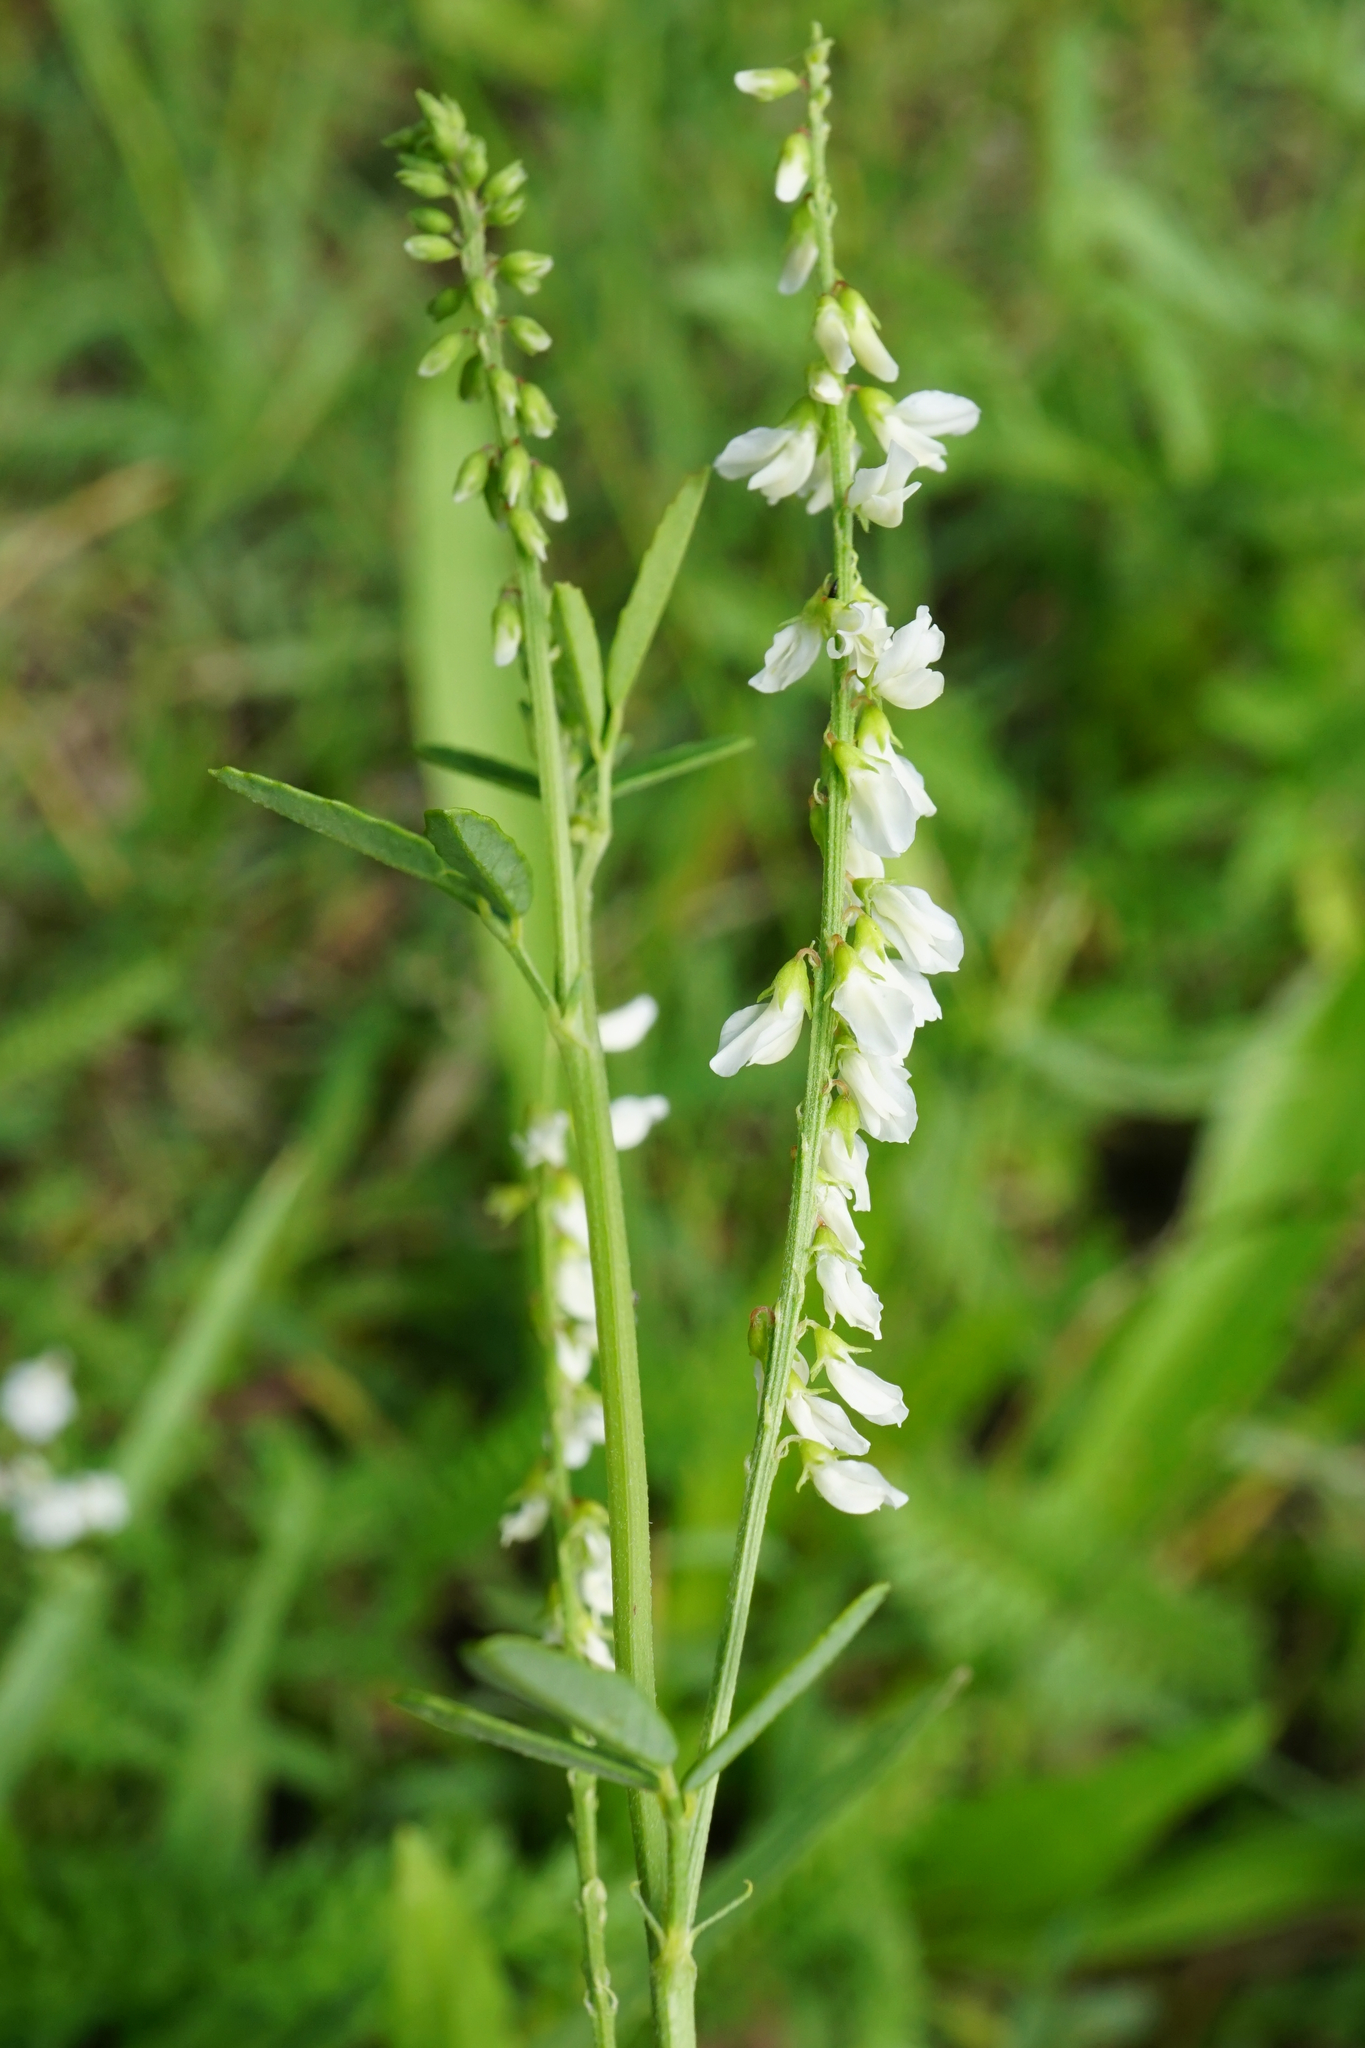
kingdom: Plantae
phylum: Tracheophyta
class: Magnoliopsida
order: Fabales
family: Fabaceae
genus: Melilotus
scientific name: Melilotus albus
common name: White melilot
